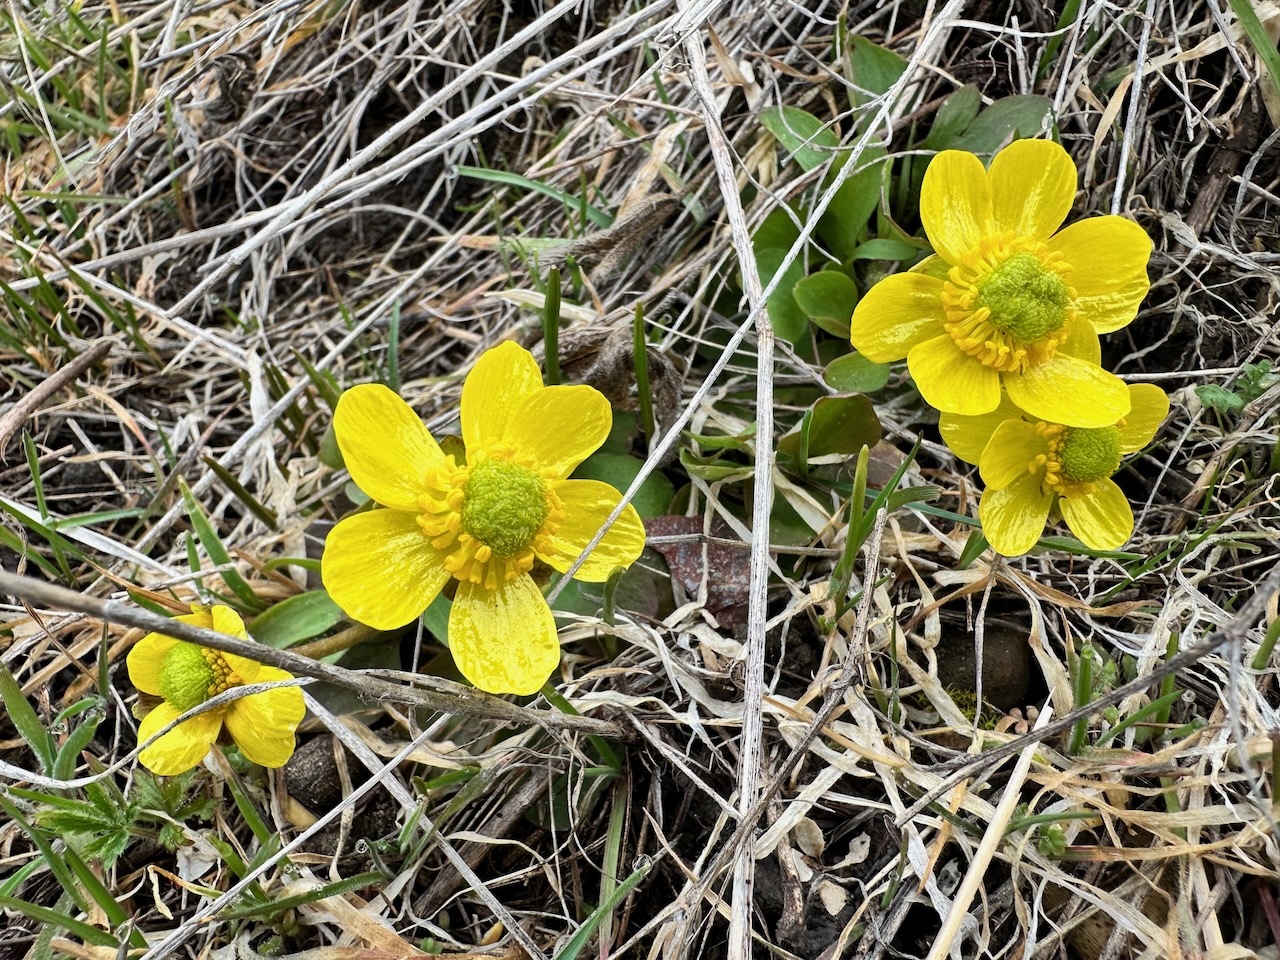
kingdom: Plantae
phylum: Tracheophyta
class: Magnoliopsida
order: Ranunculales
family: Ranunculaceae
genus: Ranunculus
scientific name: Ranunculus glaberrimus
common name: Sagebrush buttercup
